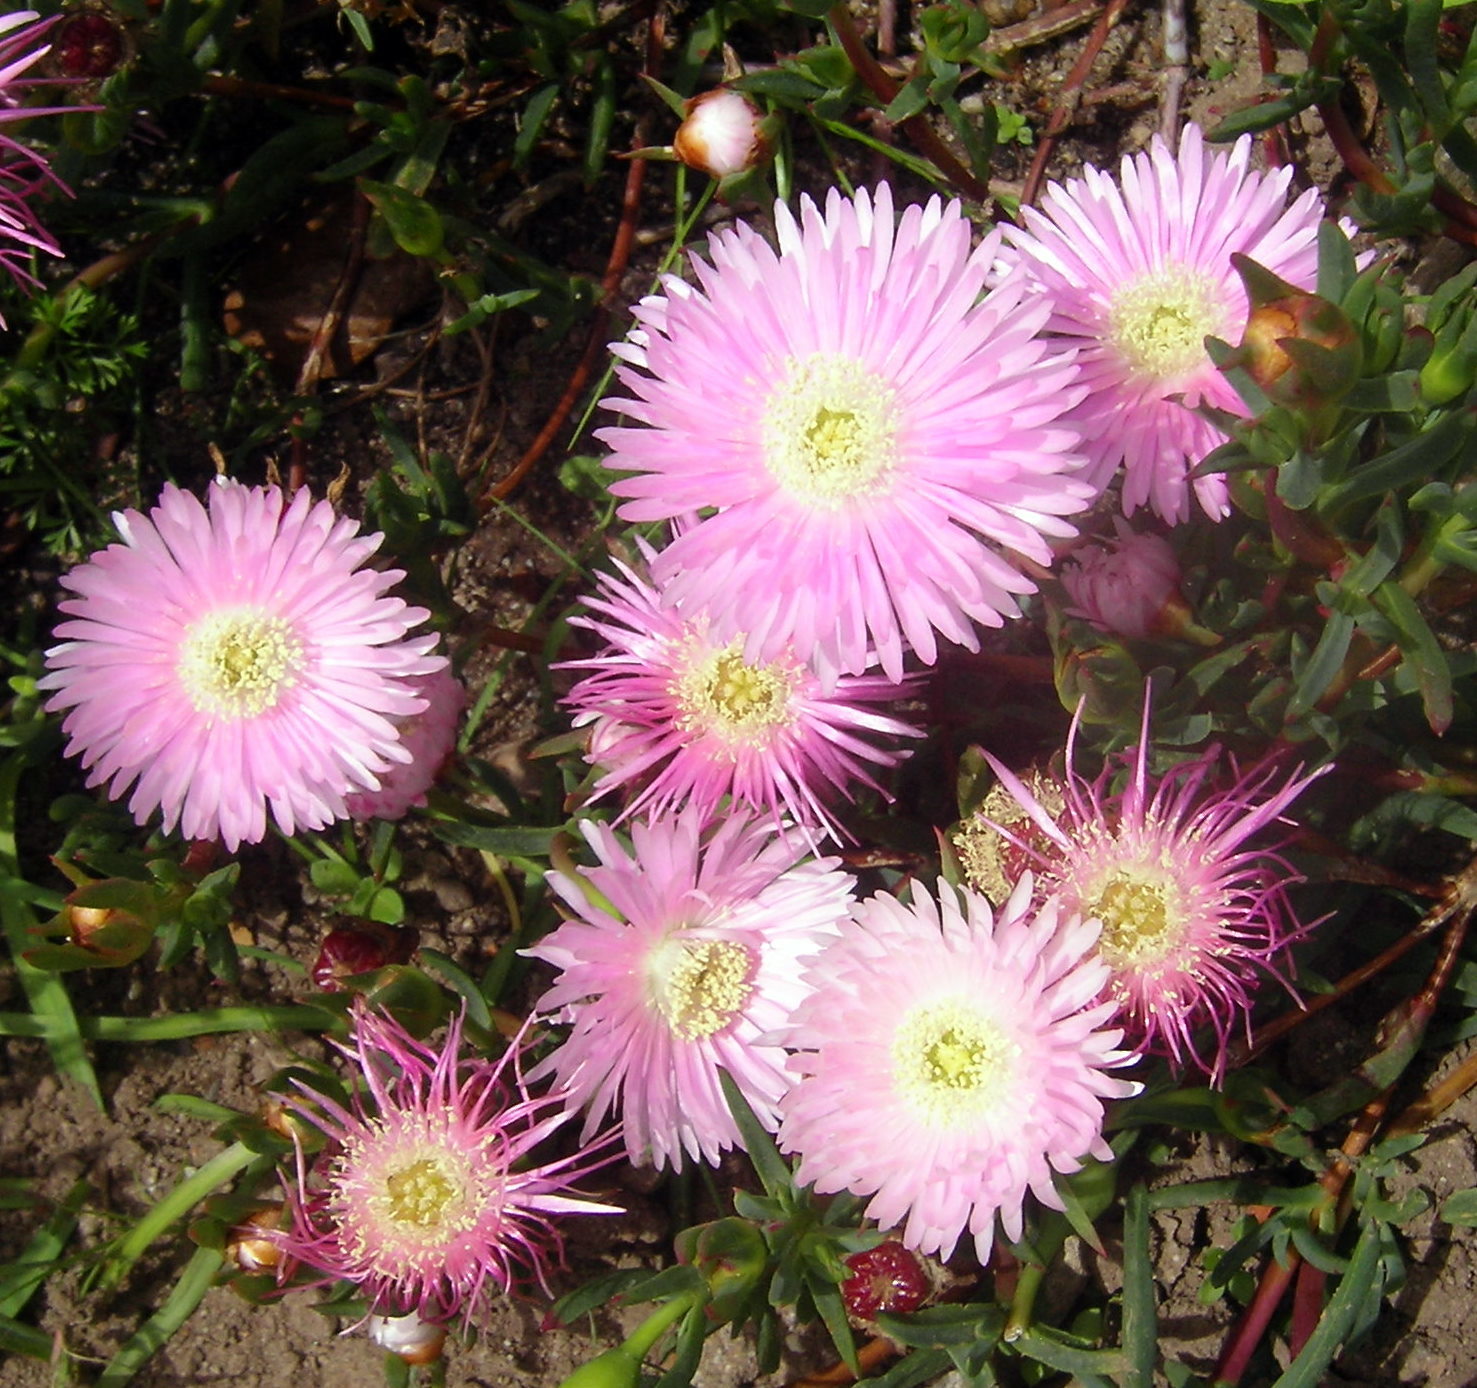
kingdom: Plantae
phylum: Tracheophyta
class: Magnoliopsida
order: Caryophyllales
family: Aizoaceae
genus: Lampranthus
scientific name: Lampranthus multiradiatus
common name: Creeping redflush
